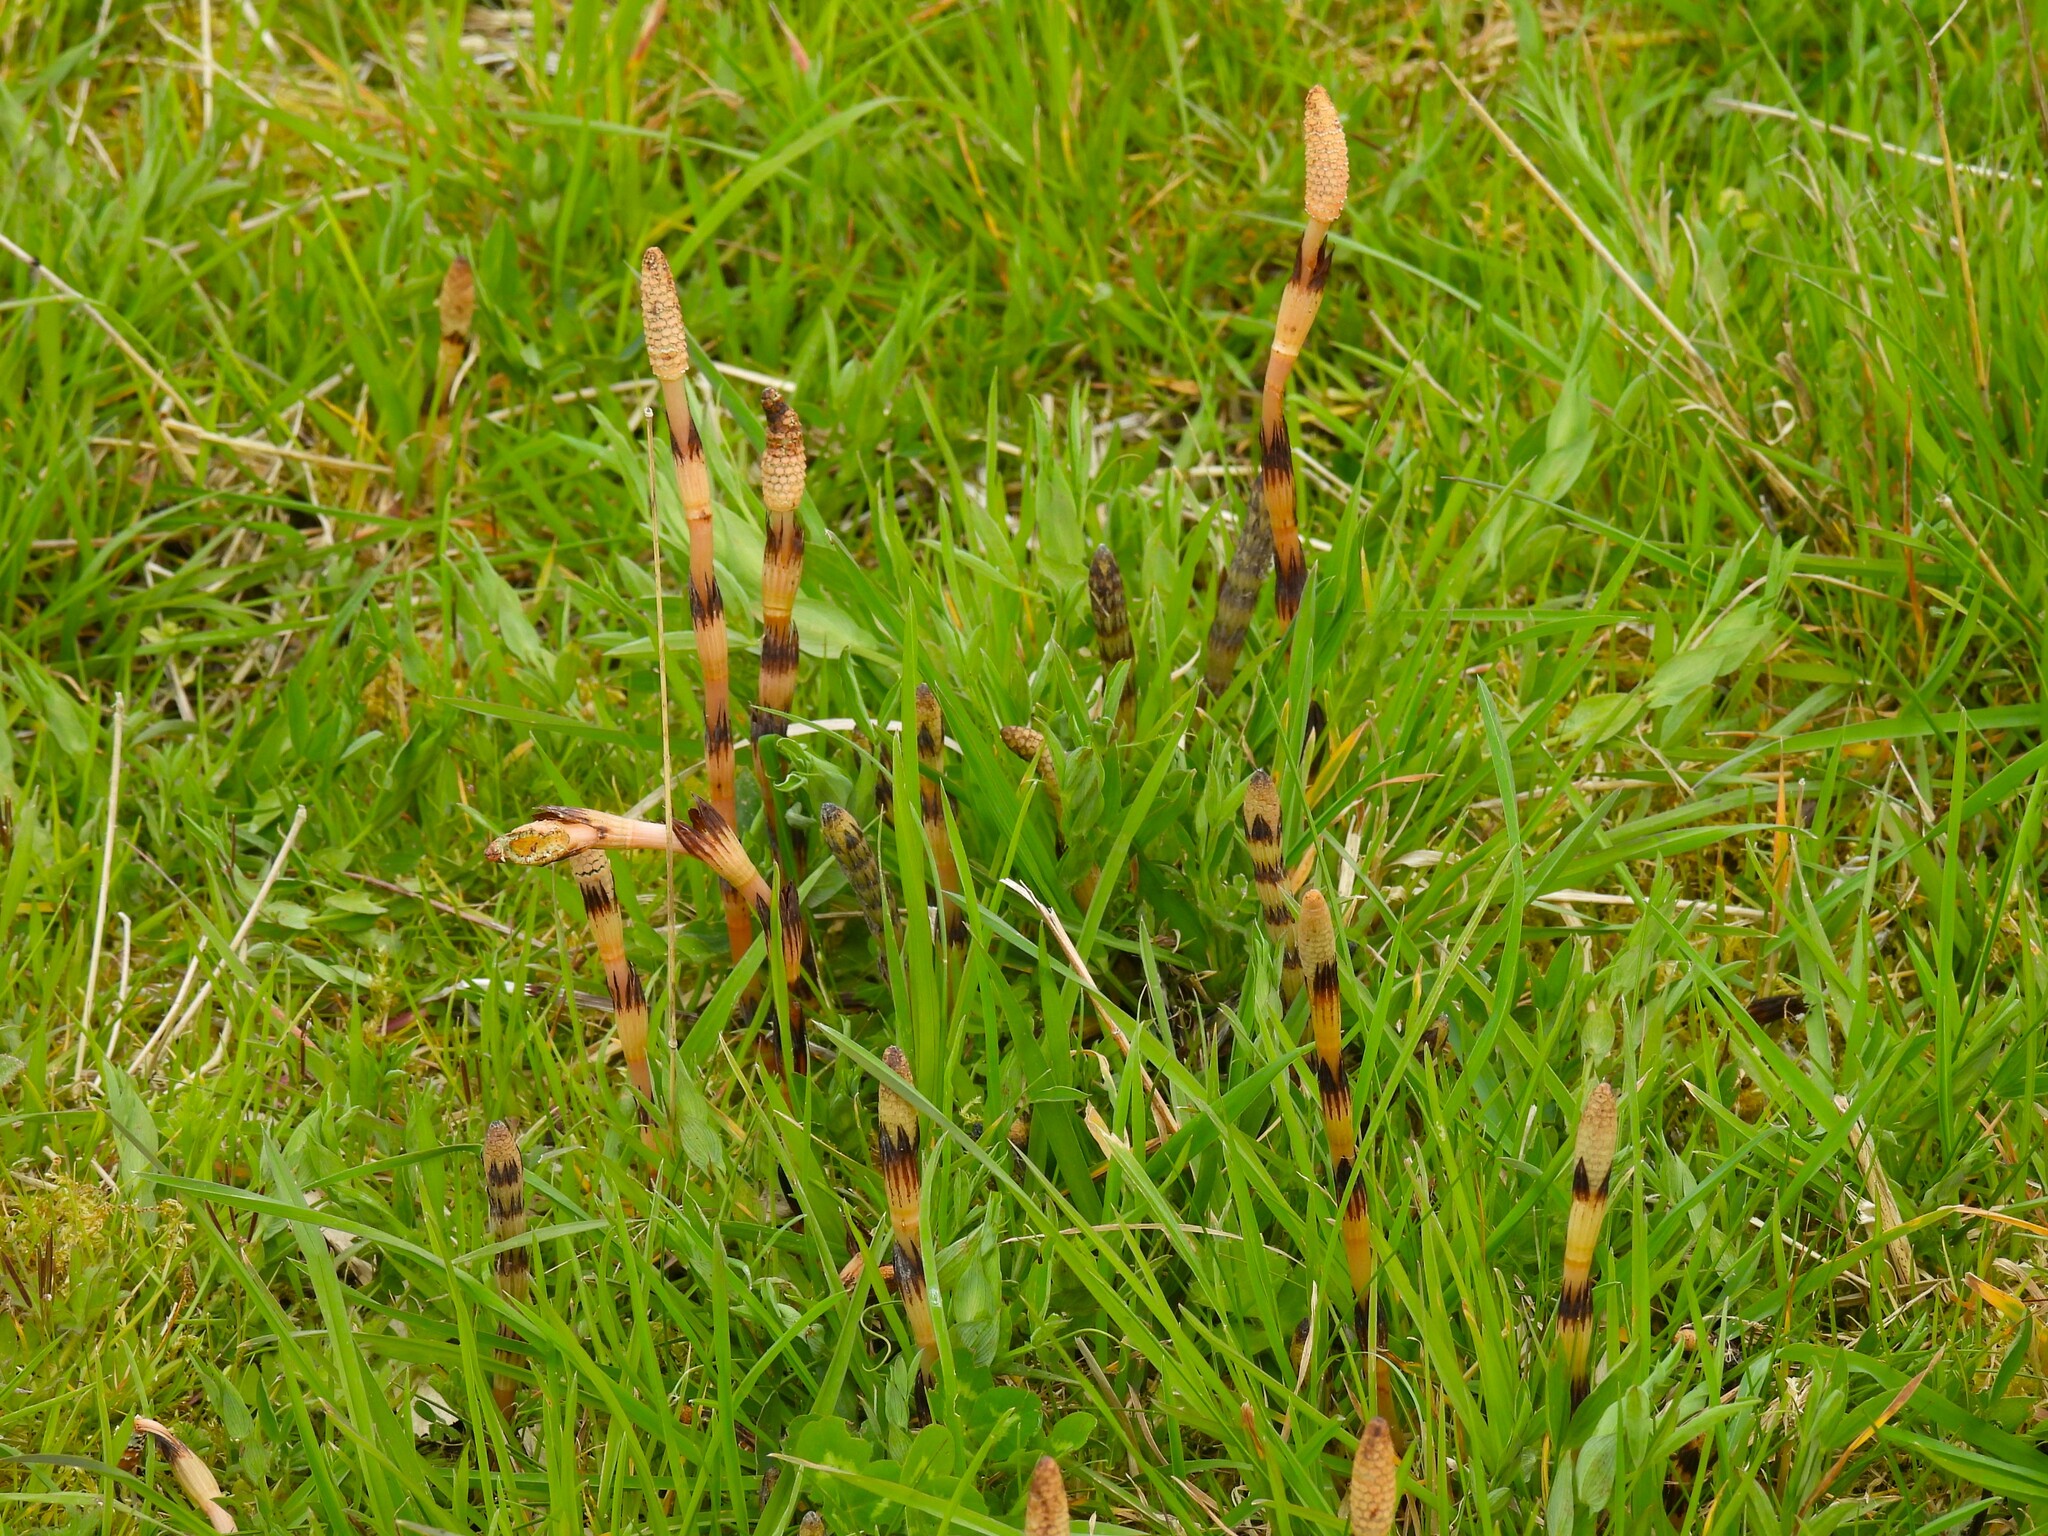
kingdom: Plantae
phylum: Tracheophyta
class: Polypodiopsida
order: Equisetales
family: Equisetaceae
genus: Equisetum
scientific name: Equisetum arvense
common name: Field horsetail
